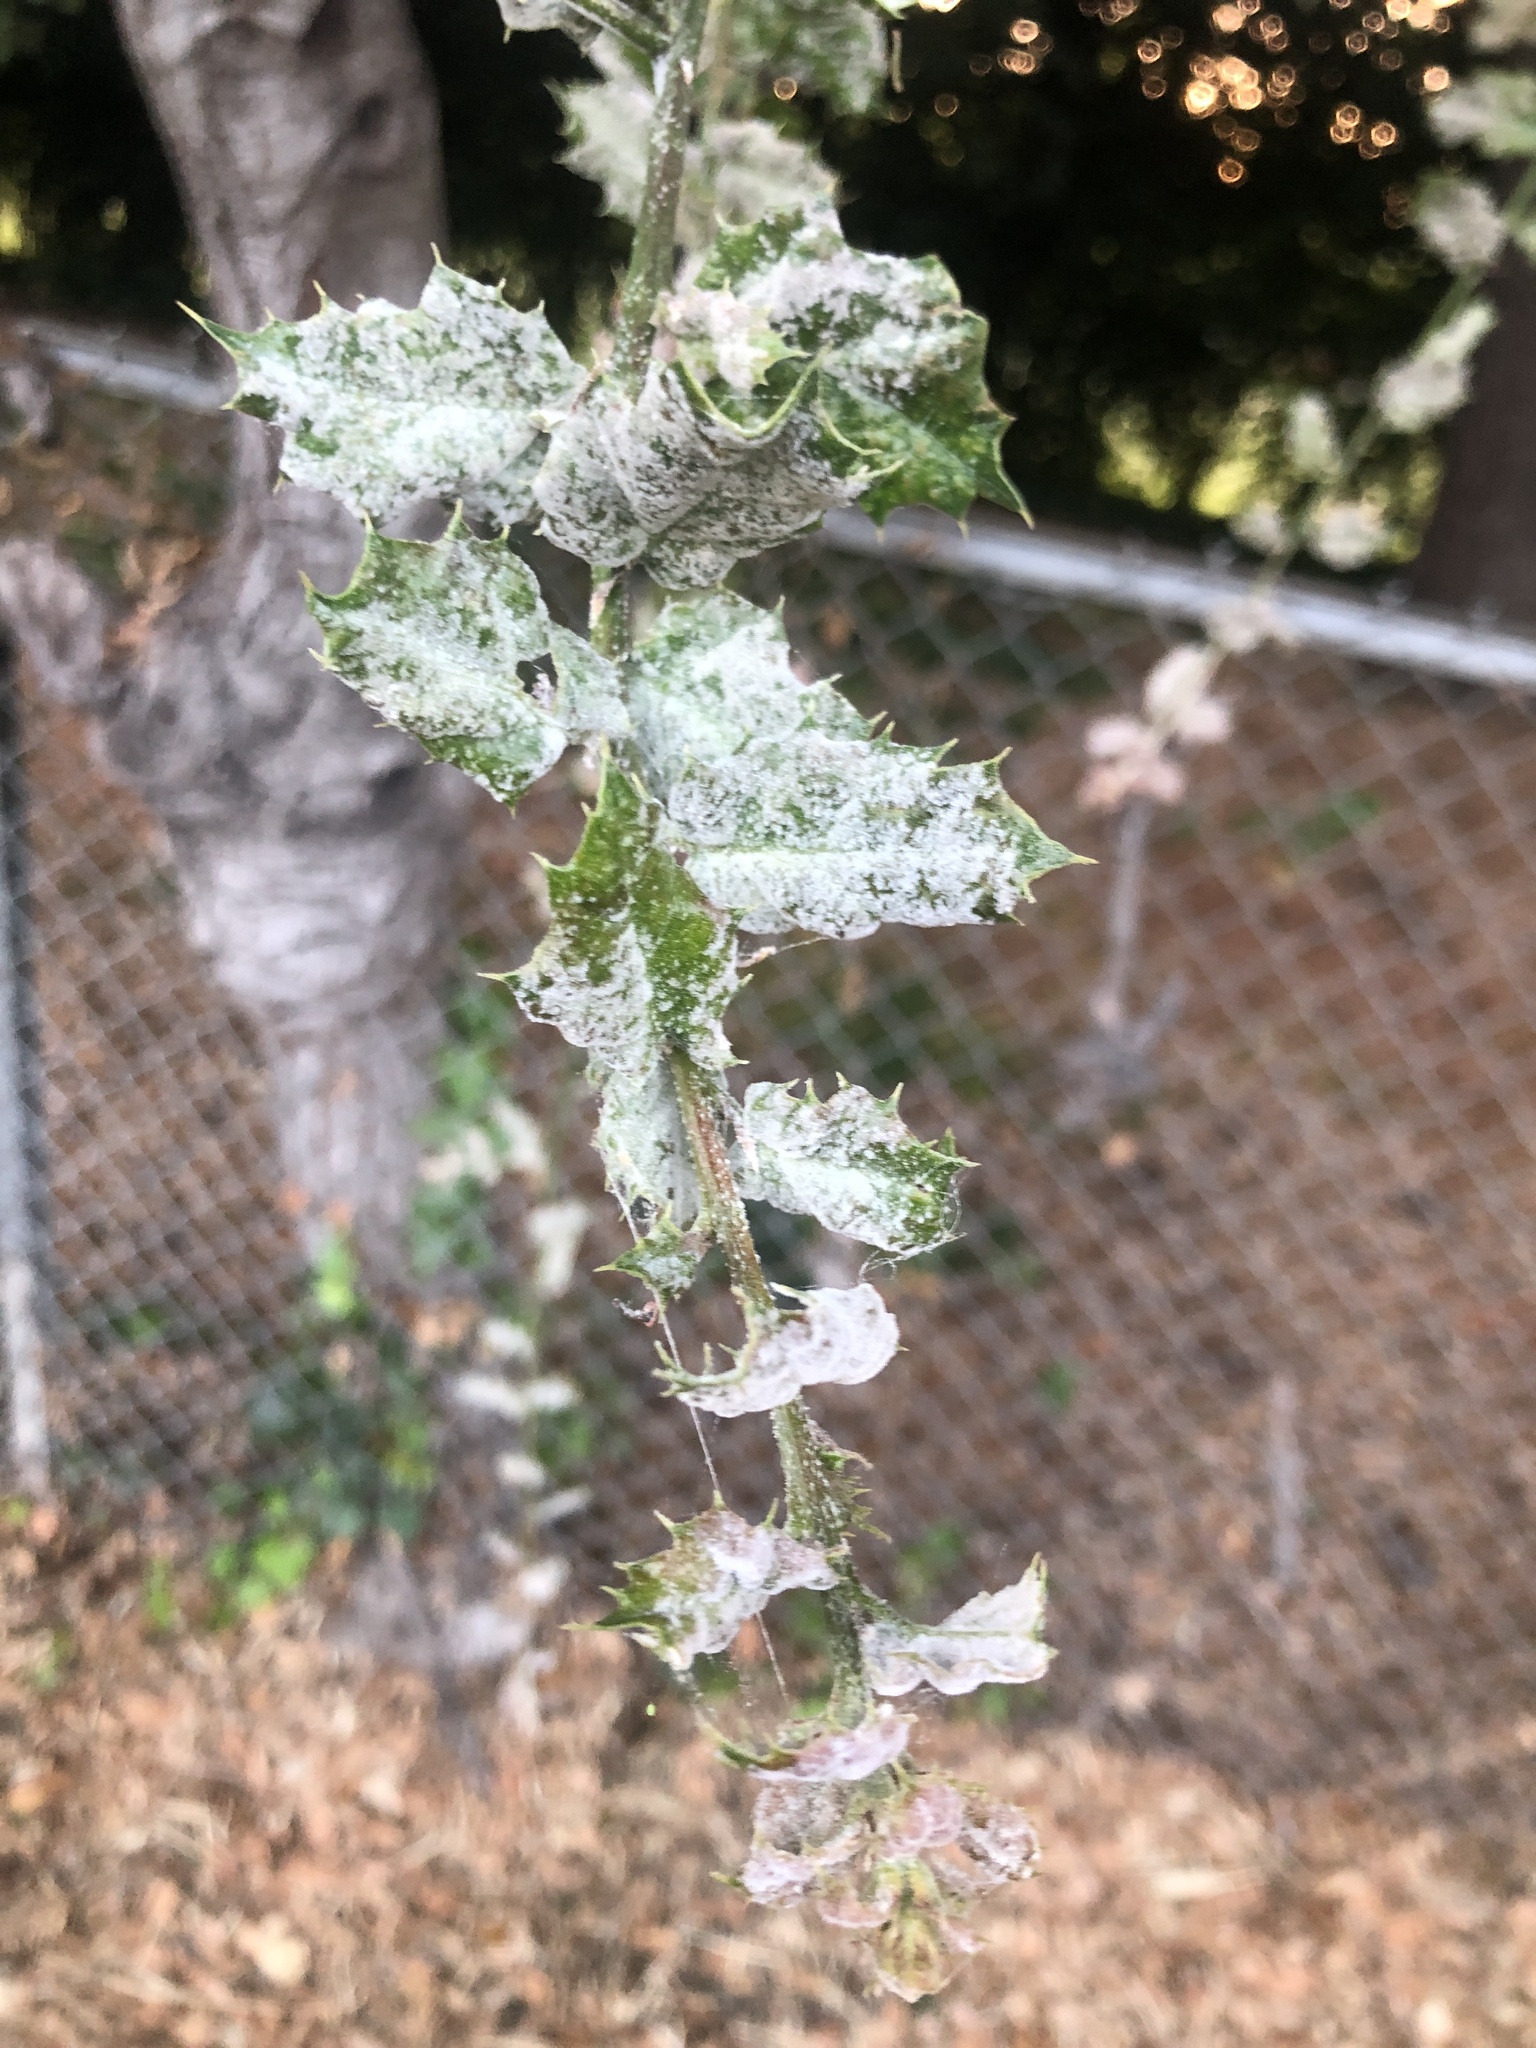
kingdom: Fungi
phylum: Ascomycota
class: Leotiomycetes
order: Helotiales
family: Erysiphaceae
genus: Cystotheca
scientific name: Cystotheca lanestris
